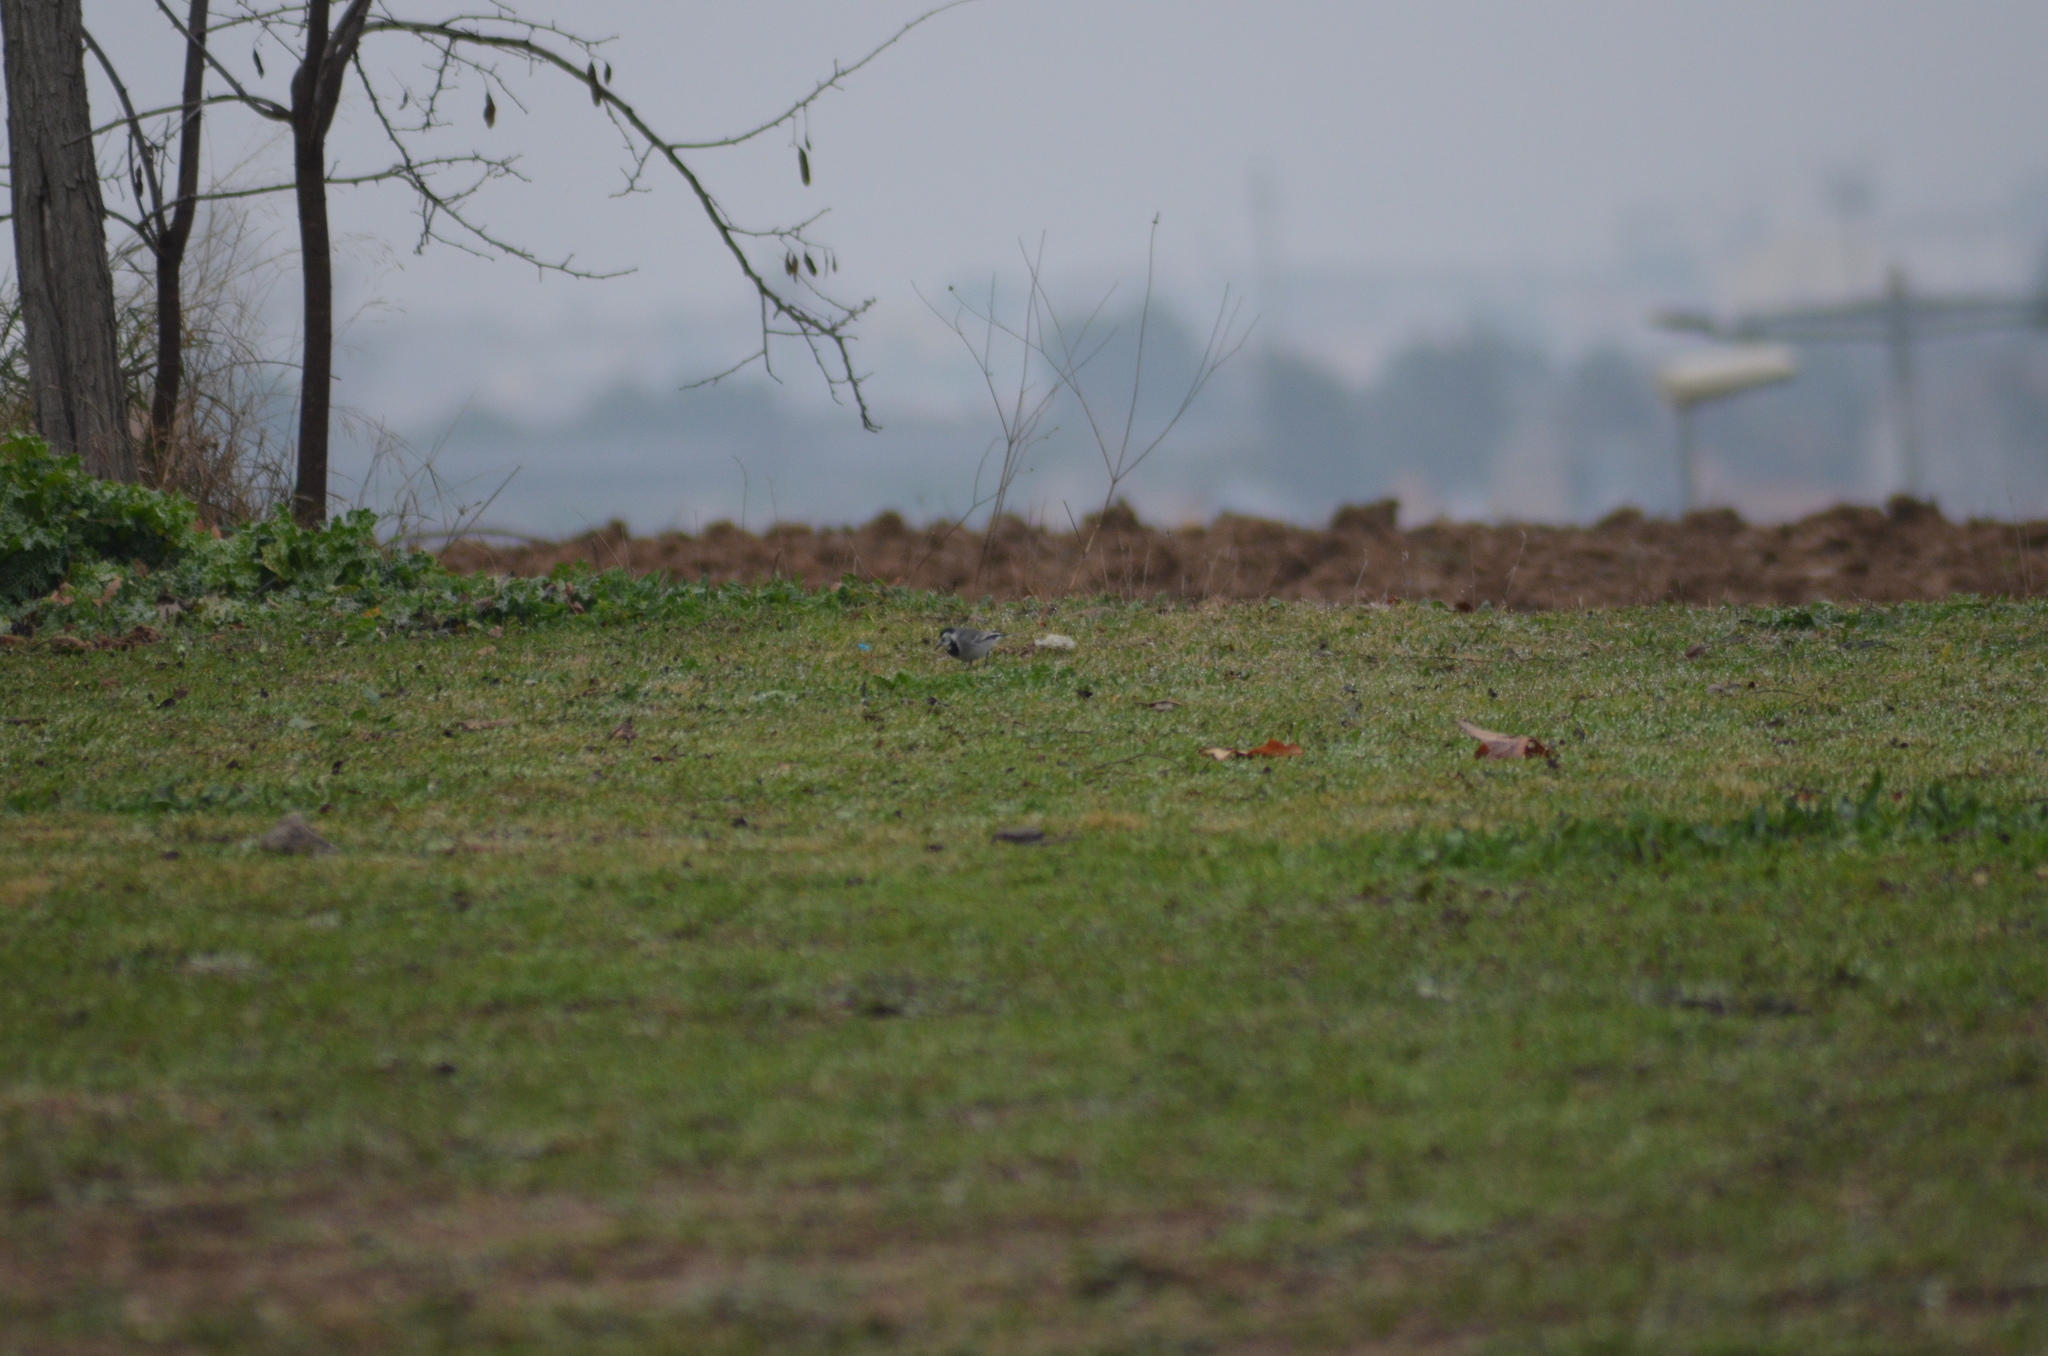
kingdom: Animalia
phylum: Chordata
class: Aves
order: Passeriformes
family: Motacillidae
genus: Motacilla
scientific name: Motacilla alba
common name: White wagtail
